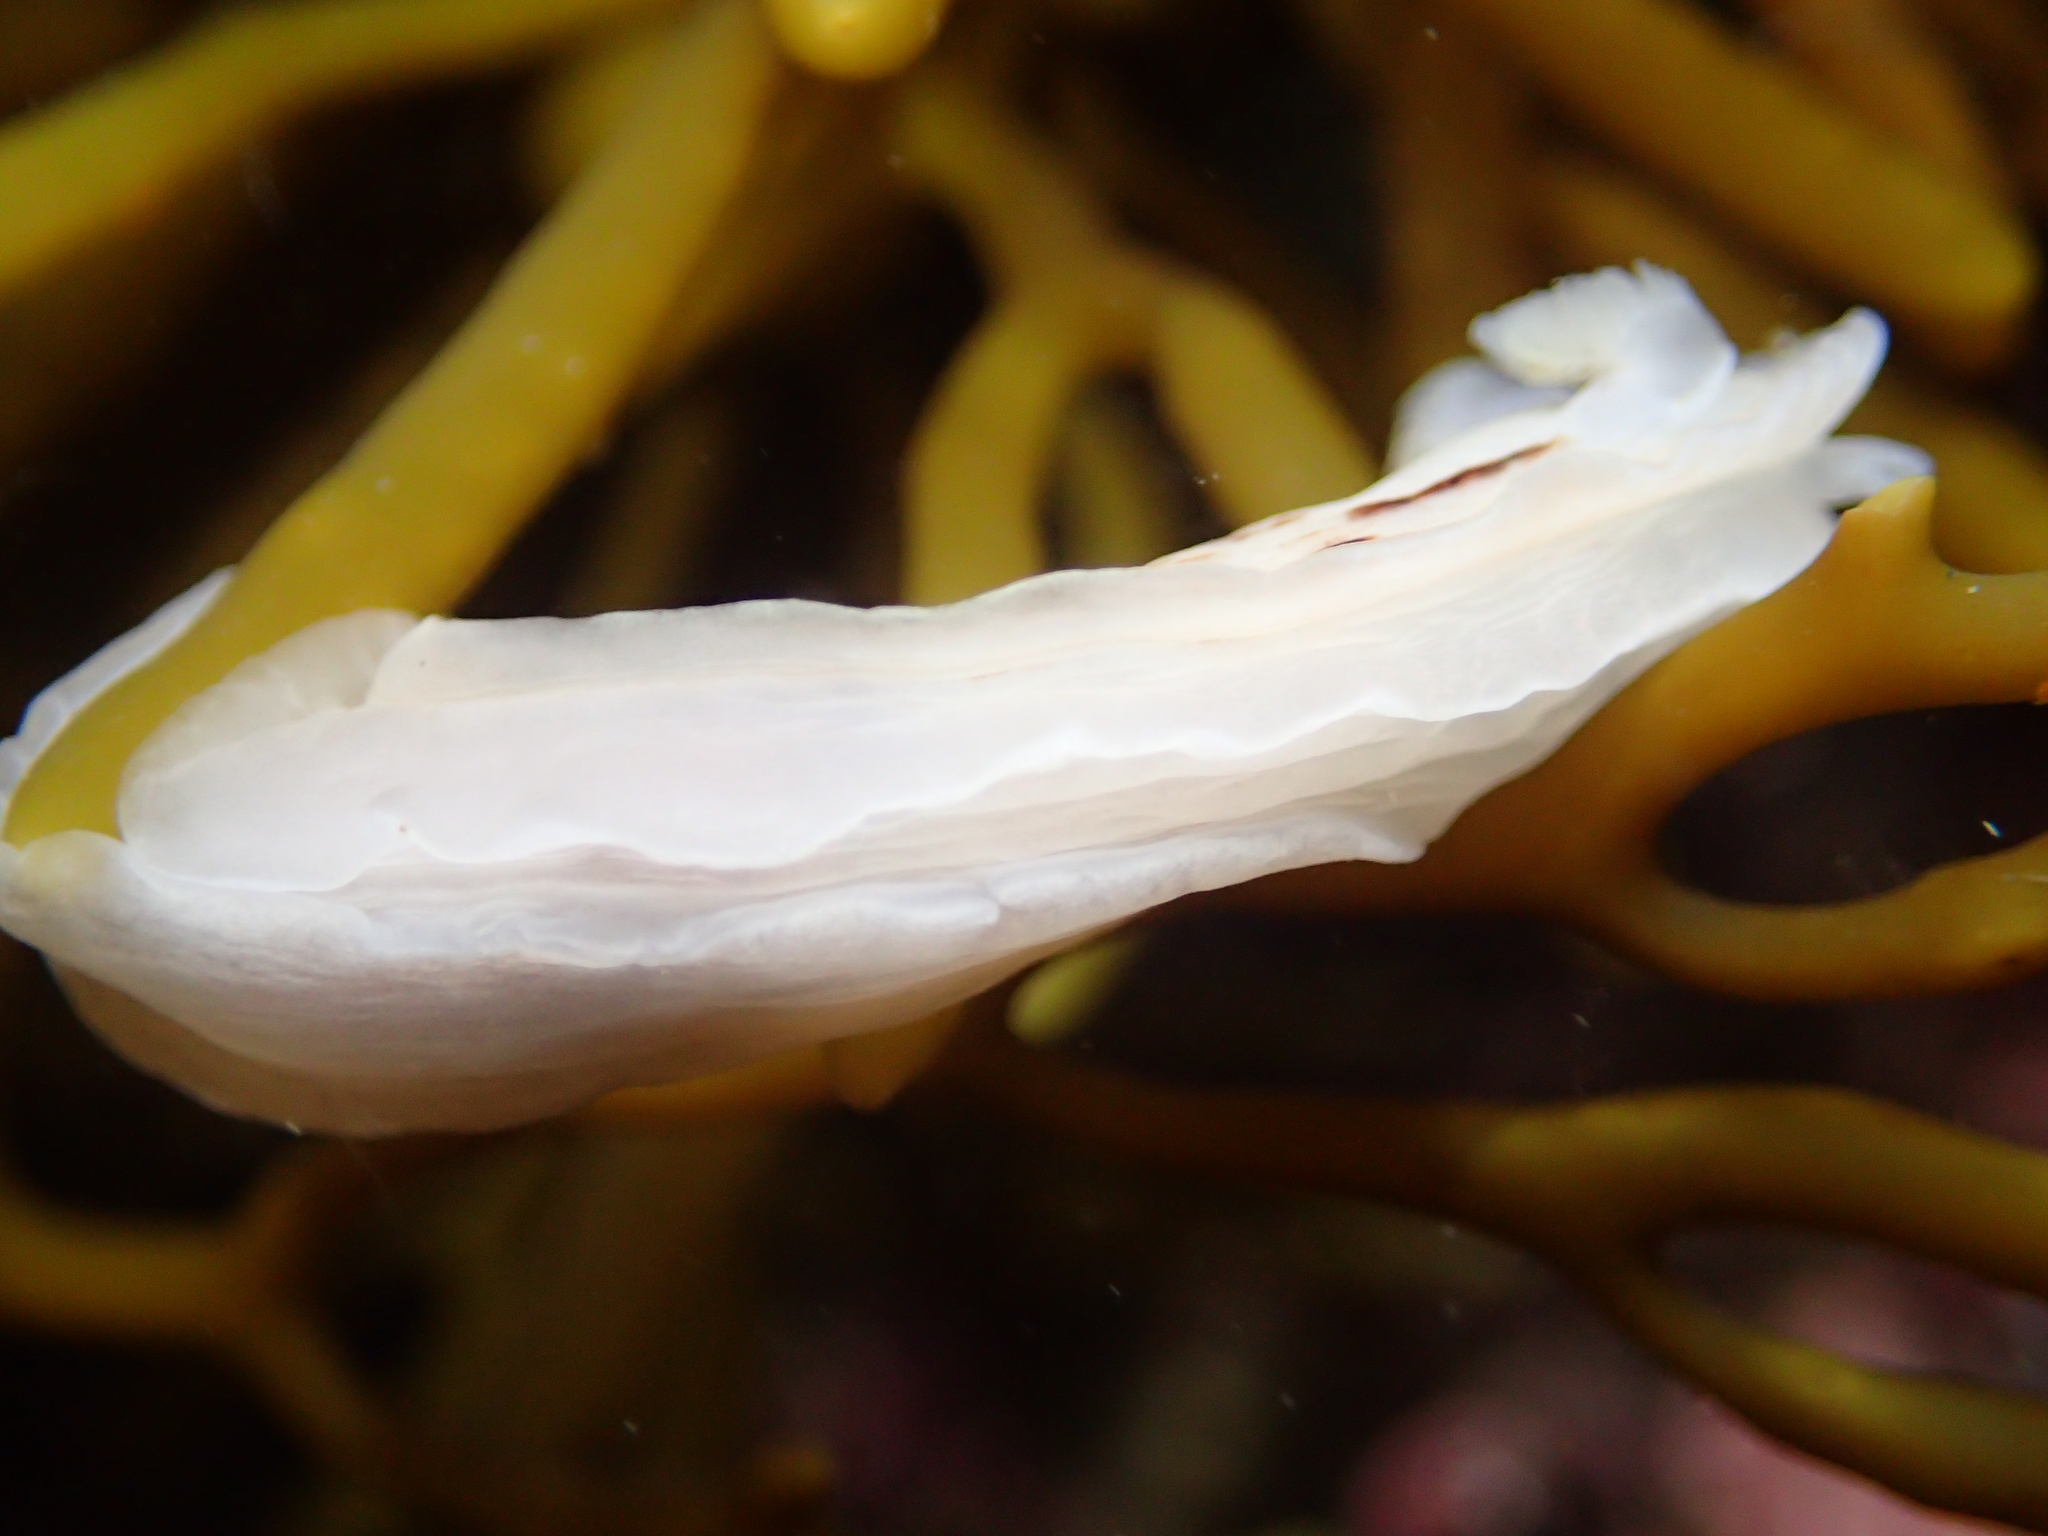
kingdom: Animalia
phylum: Mollusca
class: Gastropoda
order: Nudibranchia
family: Dorididae
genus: Aphelodoris
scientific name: Aphelodoris luctuosa
